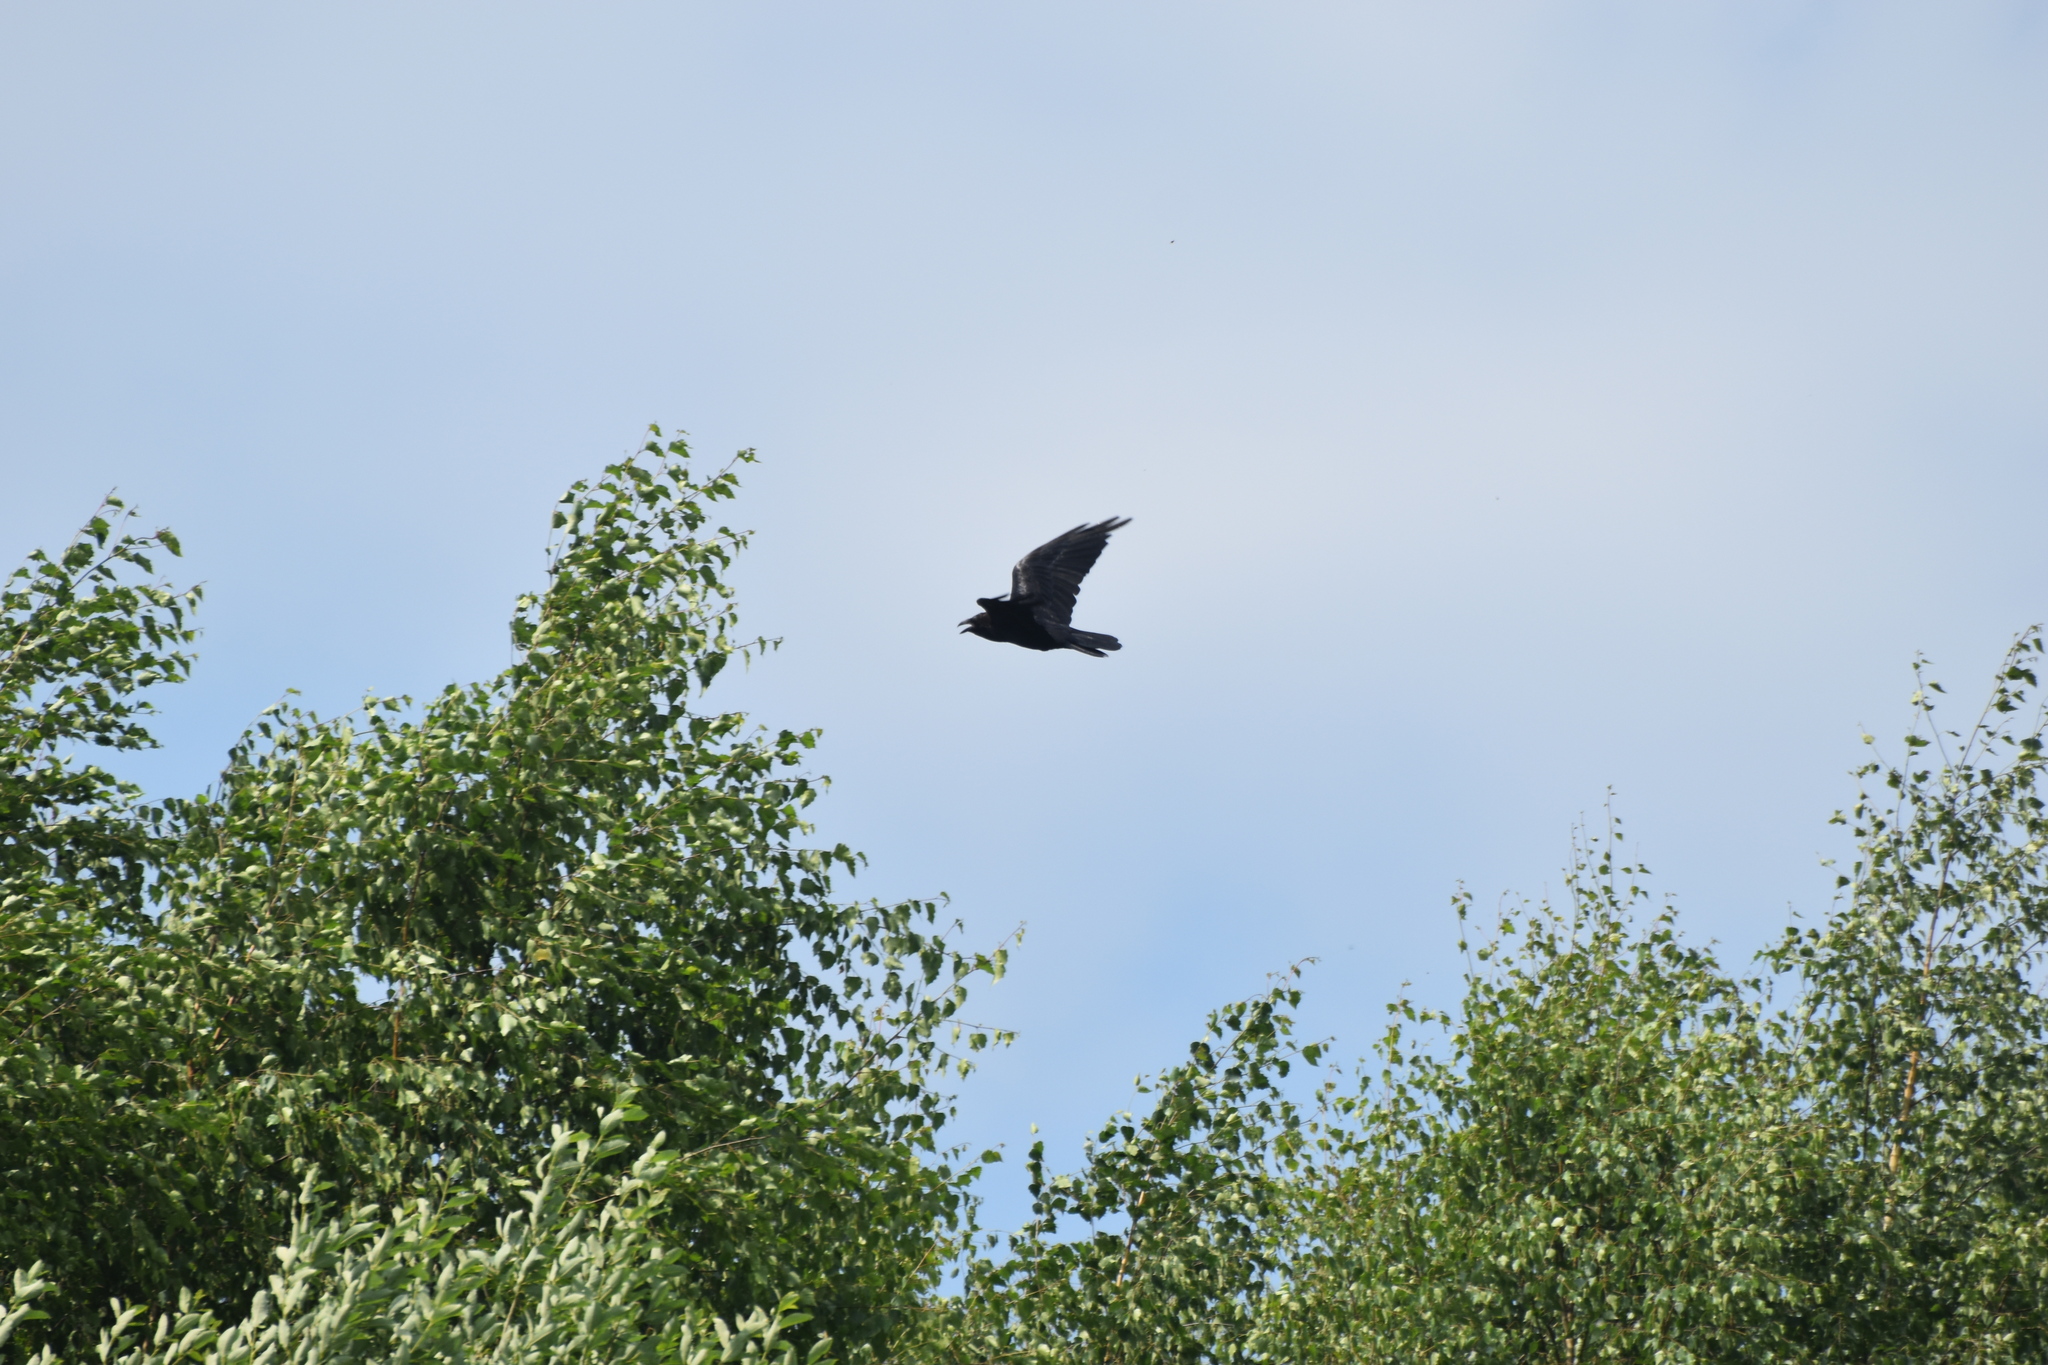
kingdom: Animalia
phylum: Chordata
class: Aves
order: Passeriformes
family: Corvidae
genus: Corvus
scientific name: Corvus corax
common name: Common raven
